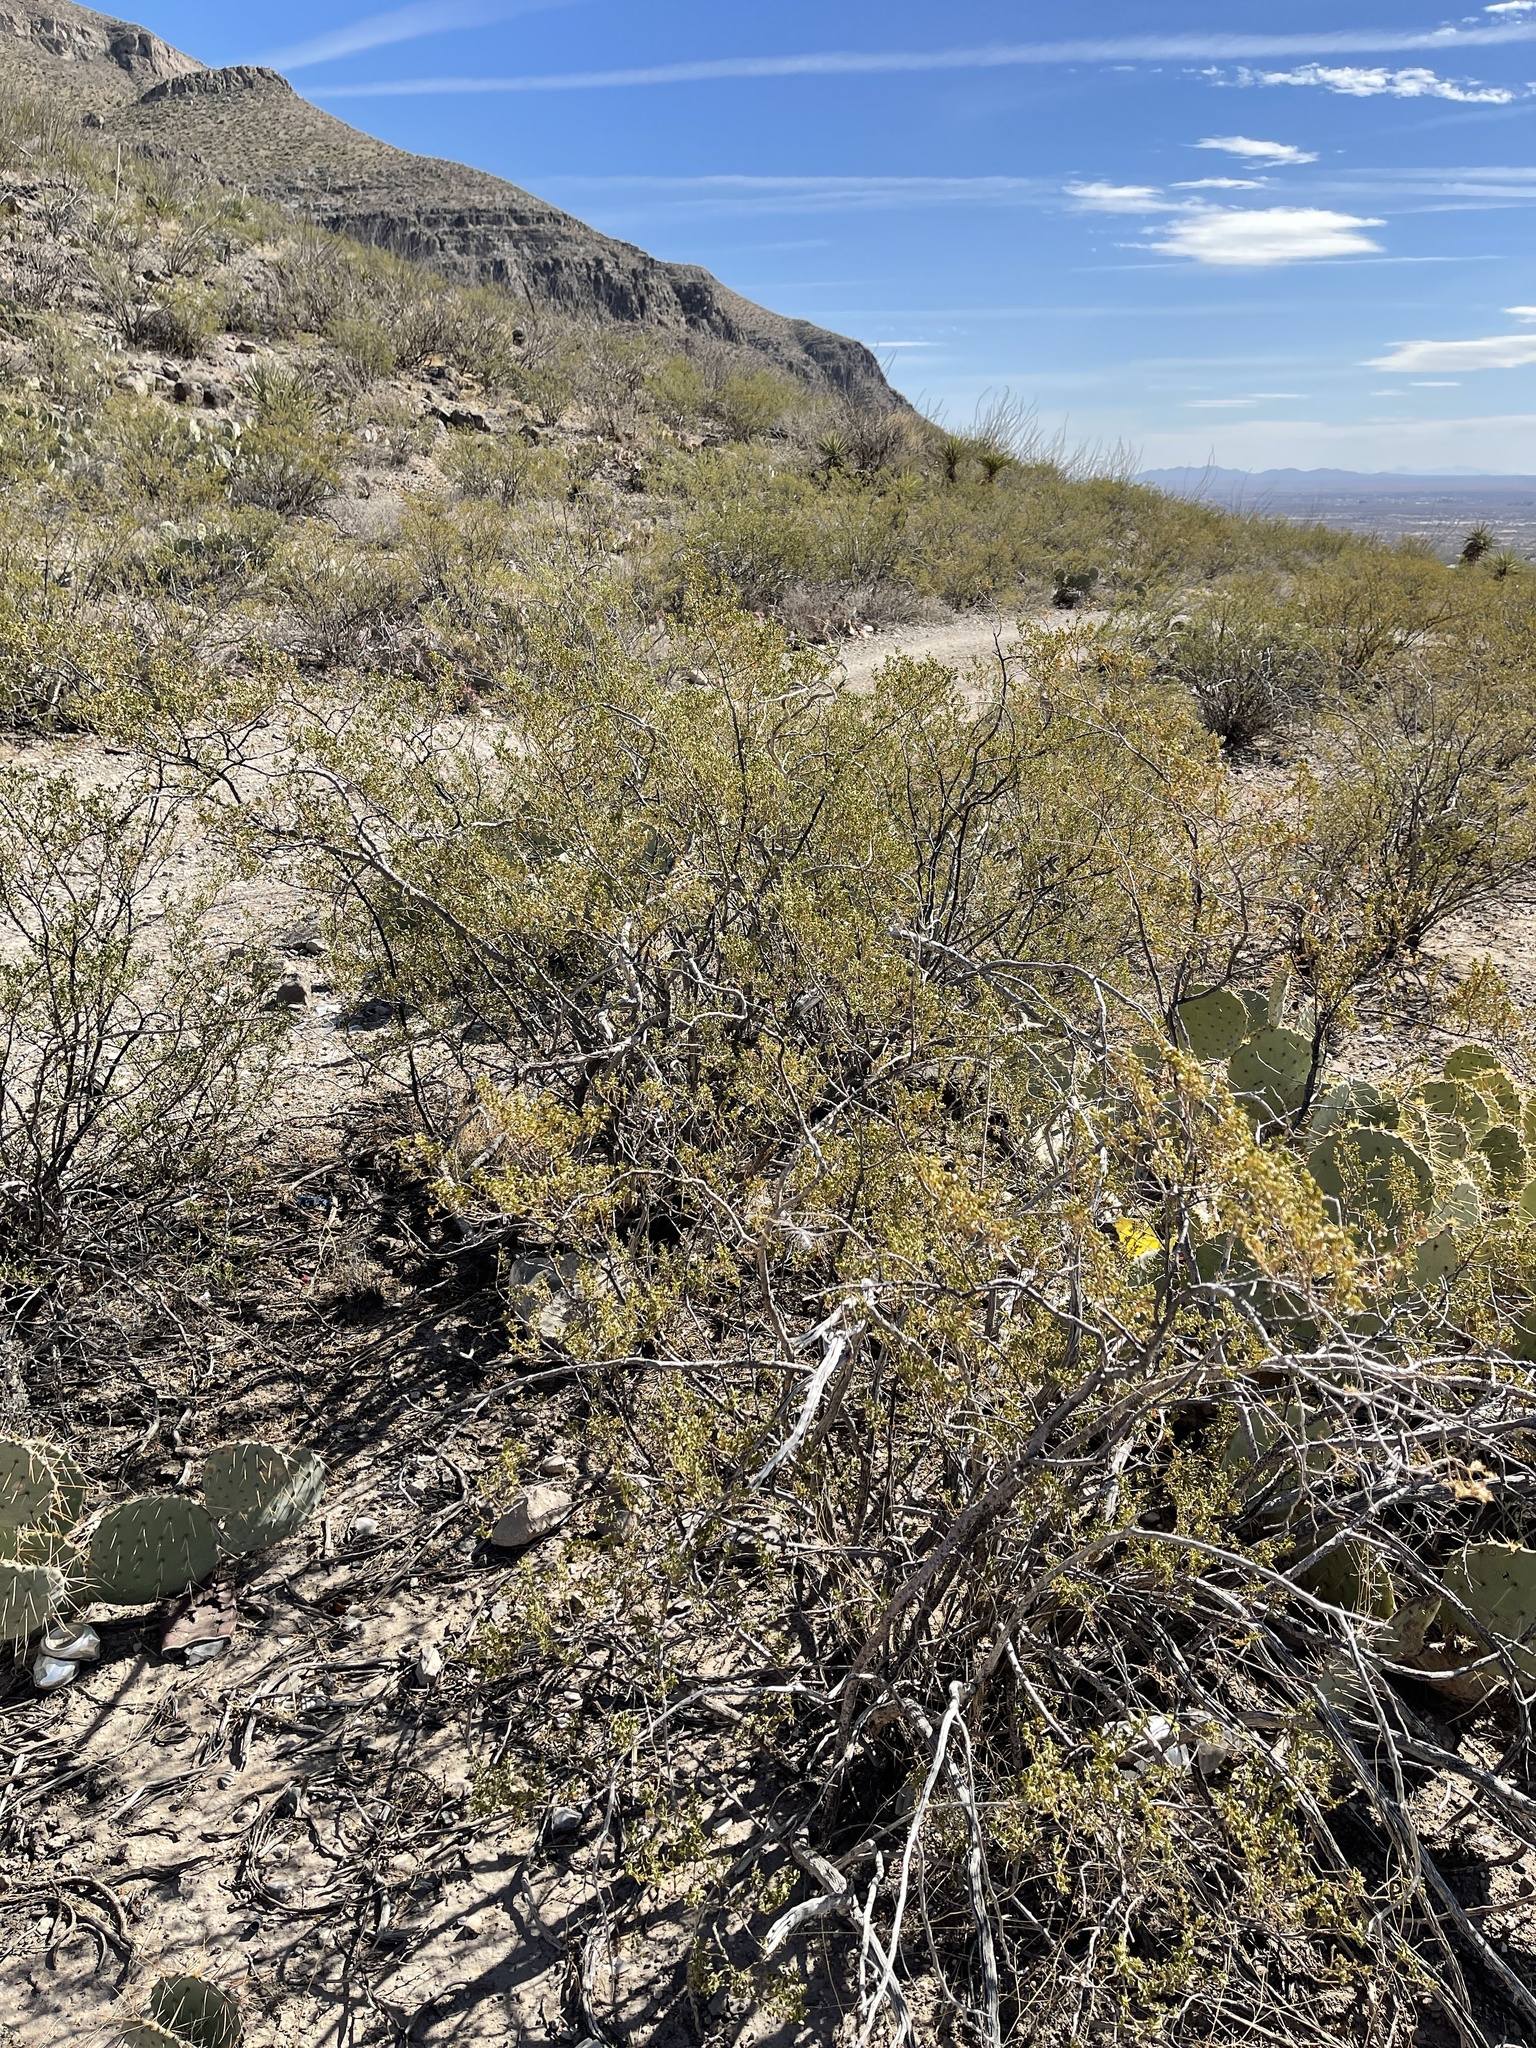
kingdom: Plantae
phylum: Tracheophyta
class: Magnoliopsida
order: Zygophyllales
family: Zygophyllaceae
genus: Larrea
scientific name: Larrea tridentata
